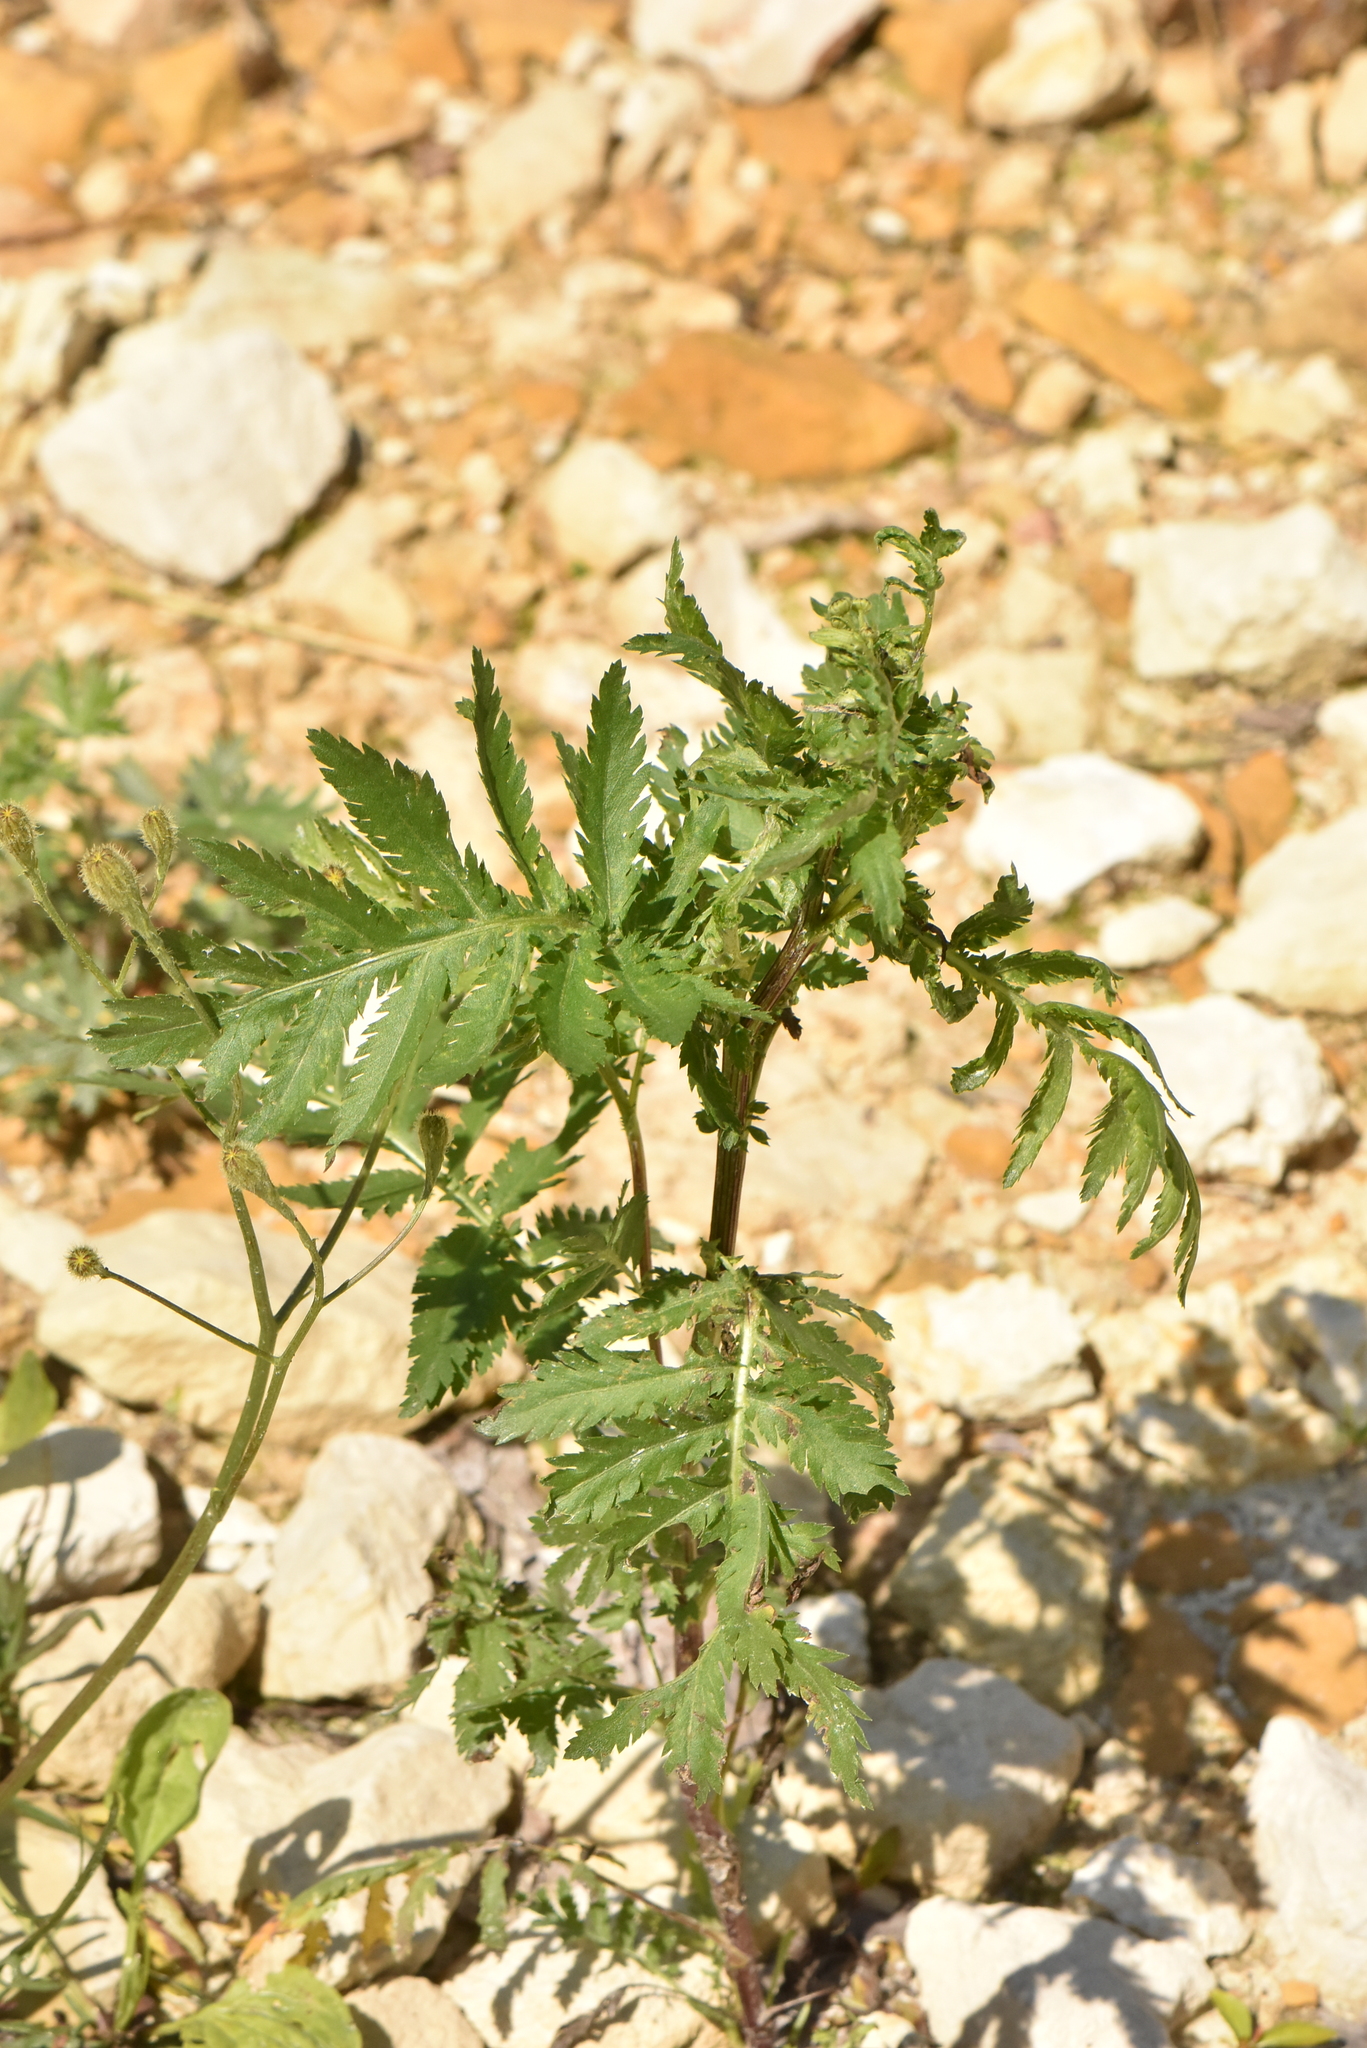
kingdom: Plantae
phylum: Tracheophyta
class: Magnoliopsida
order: Asterales
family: Asteraceae
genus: Tanacetum
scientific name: Tanacetum vulgare
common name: Common tansy
